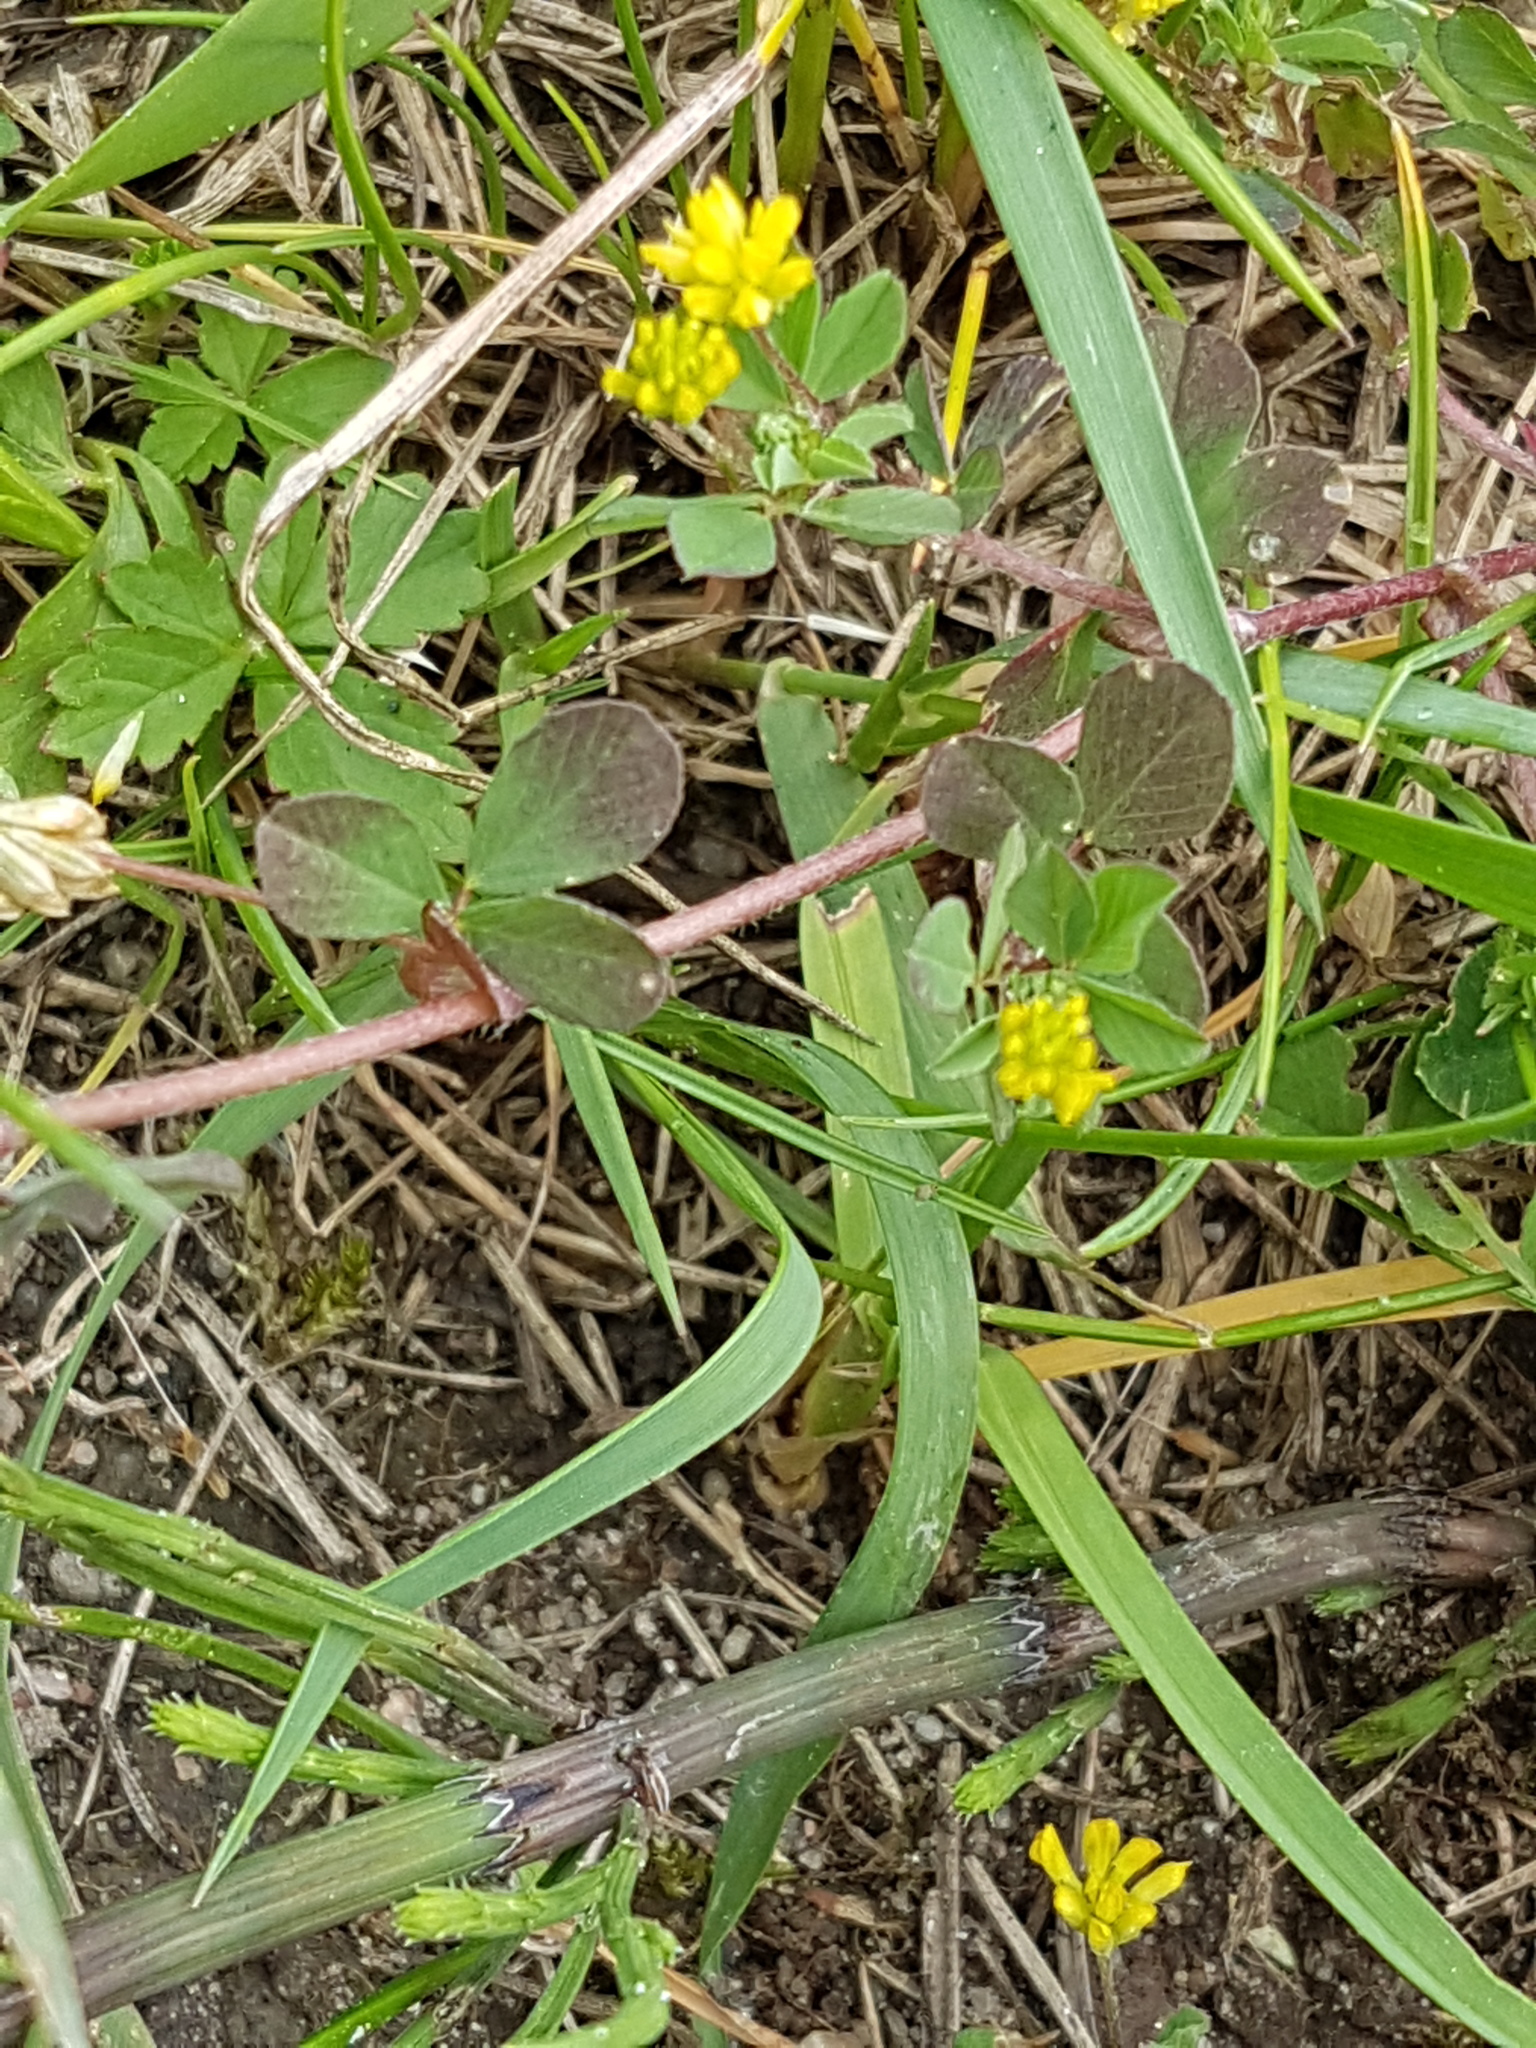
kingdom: Plantae
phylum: Tracheophyta
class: Magnoliopsida
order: Fabales
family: Fabaceae
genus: Trifolium
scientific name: Trifolium dubium
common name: Suckling clover
